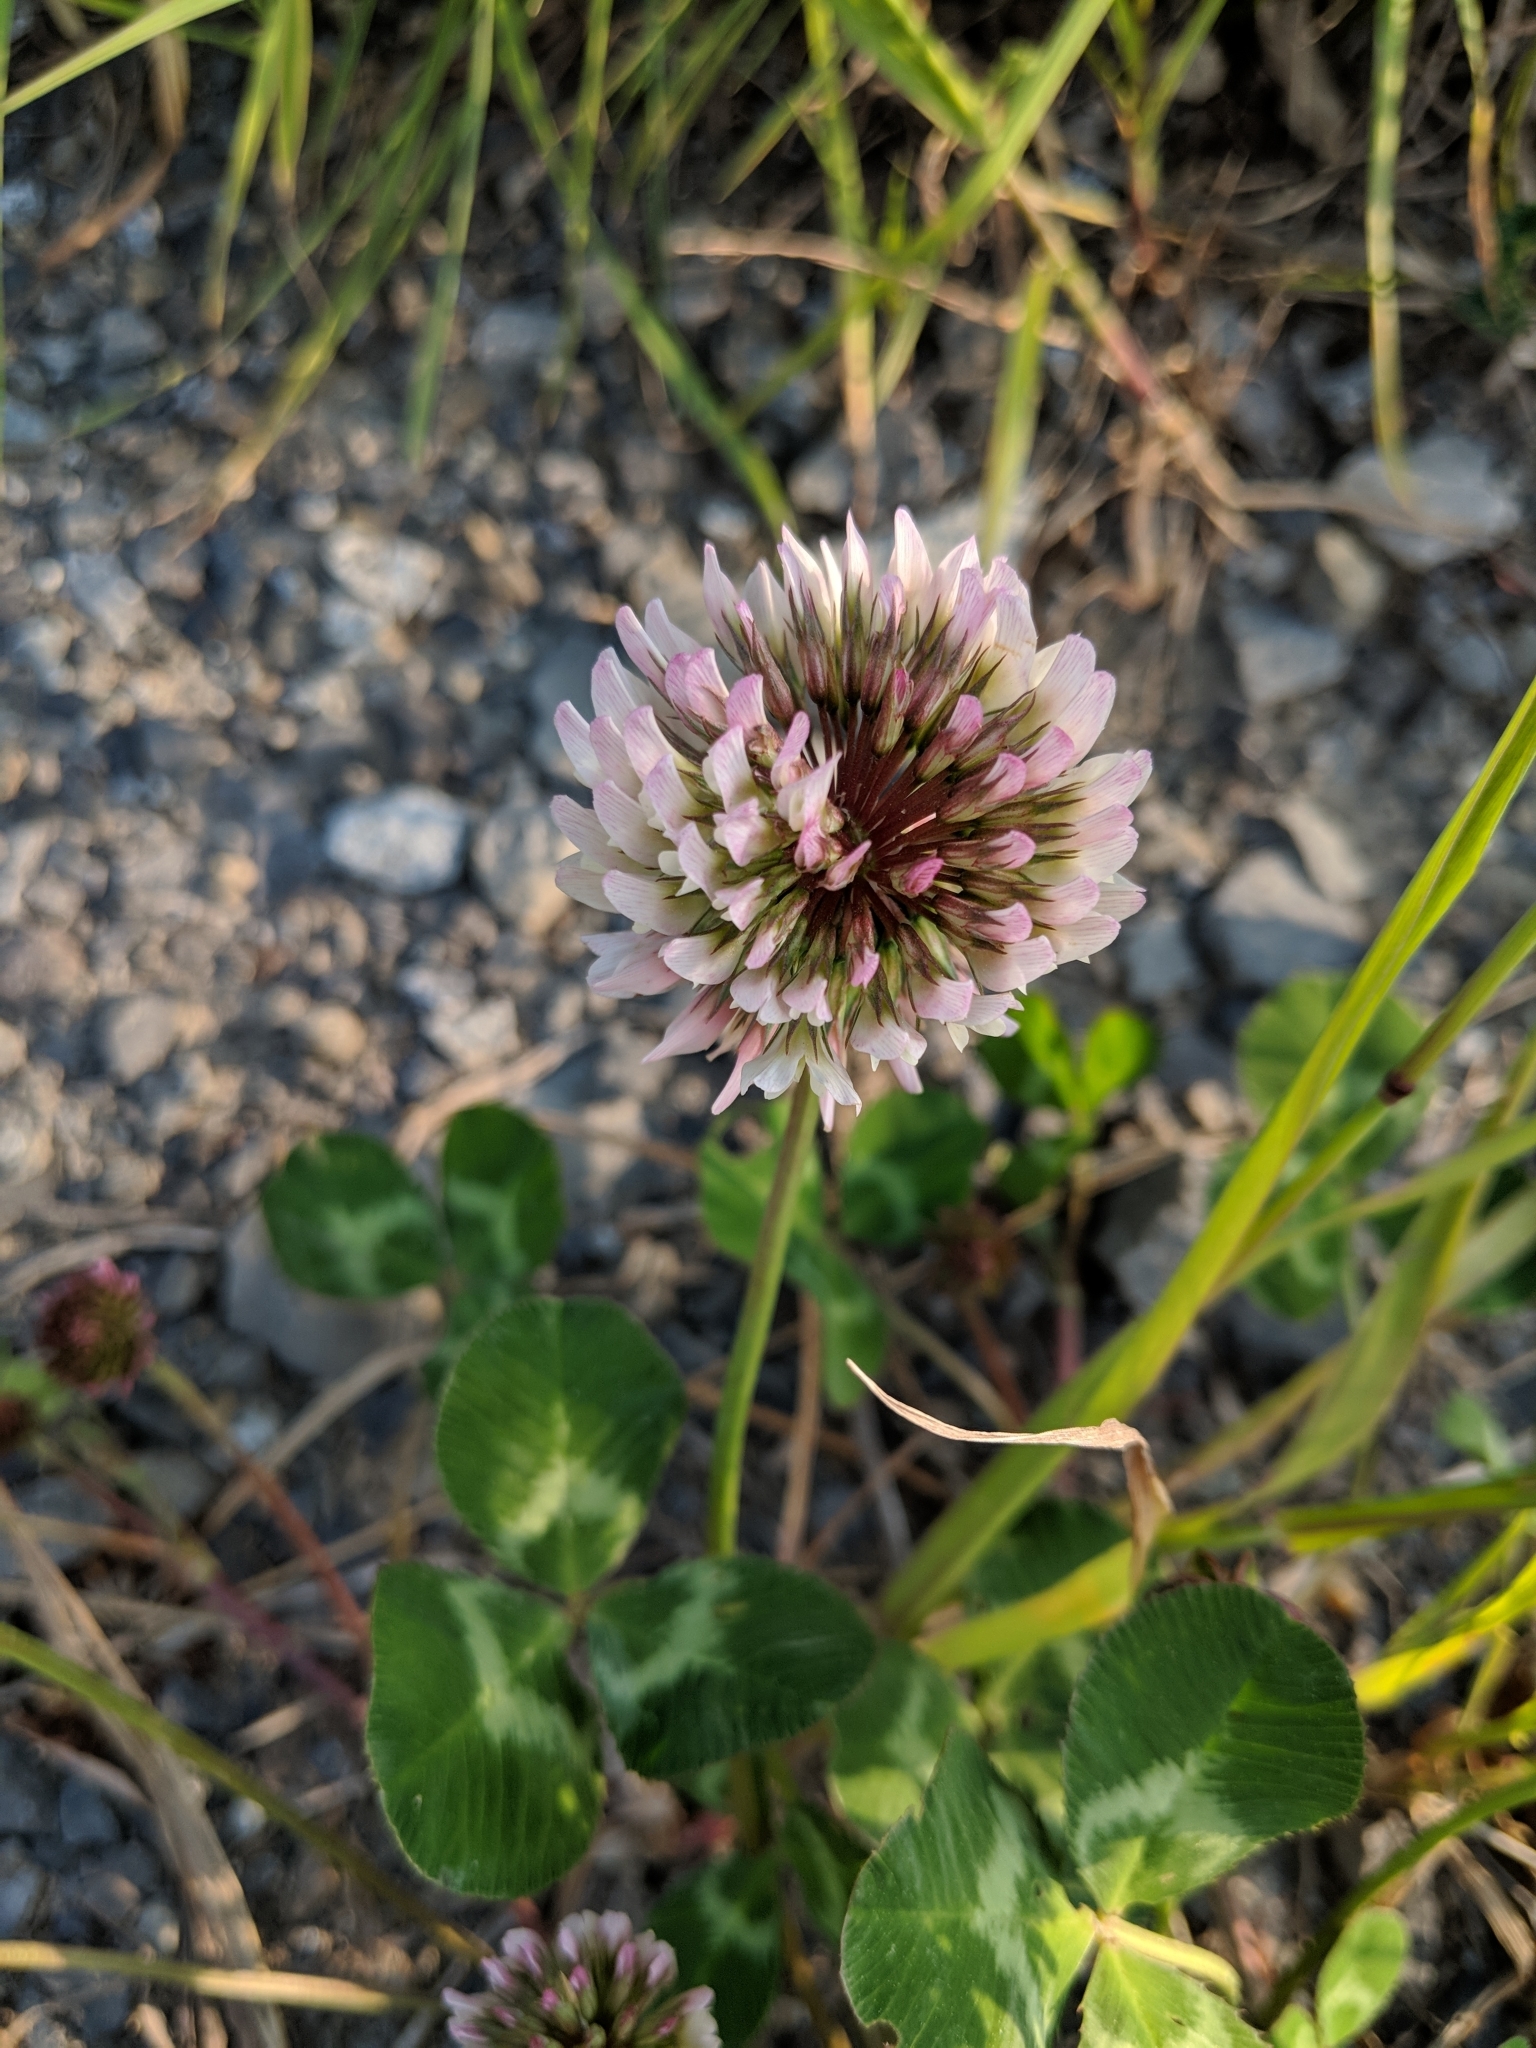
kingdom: Plantae
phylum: Tracheophyta
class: Magnoliopsida
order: Fabales
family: Fabaceae
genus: Trifolium
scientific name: Trifolium pratense
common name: Red clover
